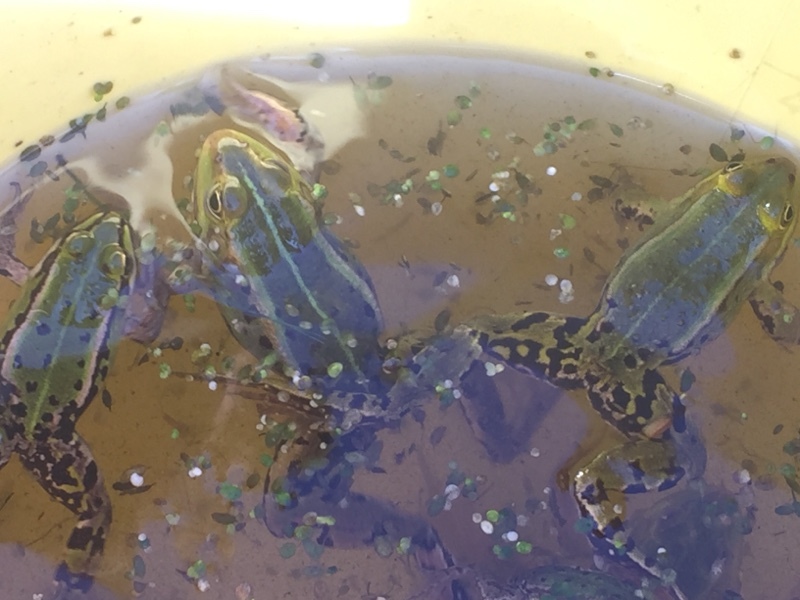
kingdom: Animalia
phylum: Chordata
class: Amphibia
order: Anura
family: Ranidae
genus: Pelophylax
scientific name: Pelophylax
